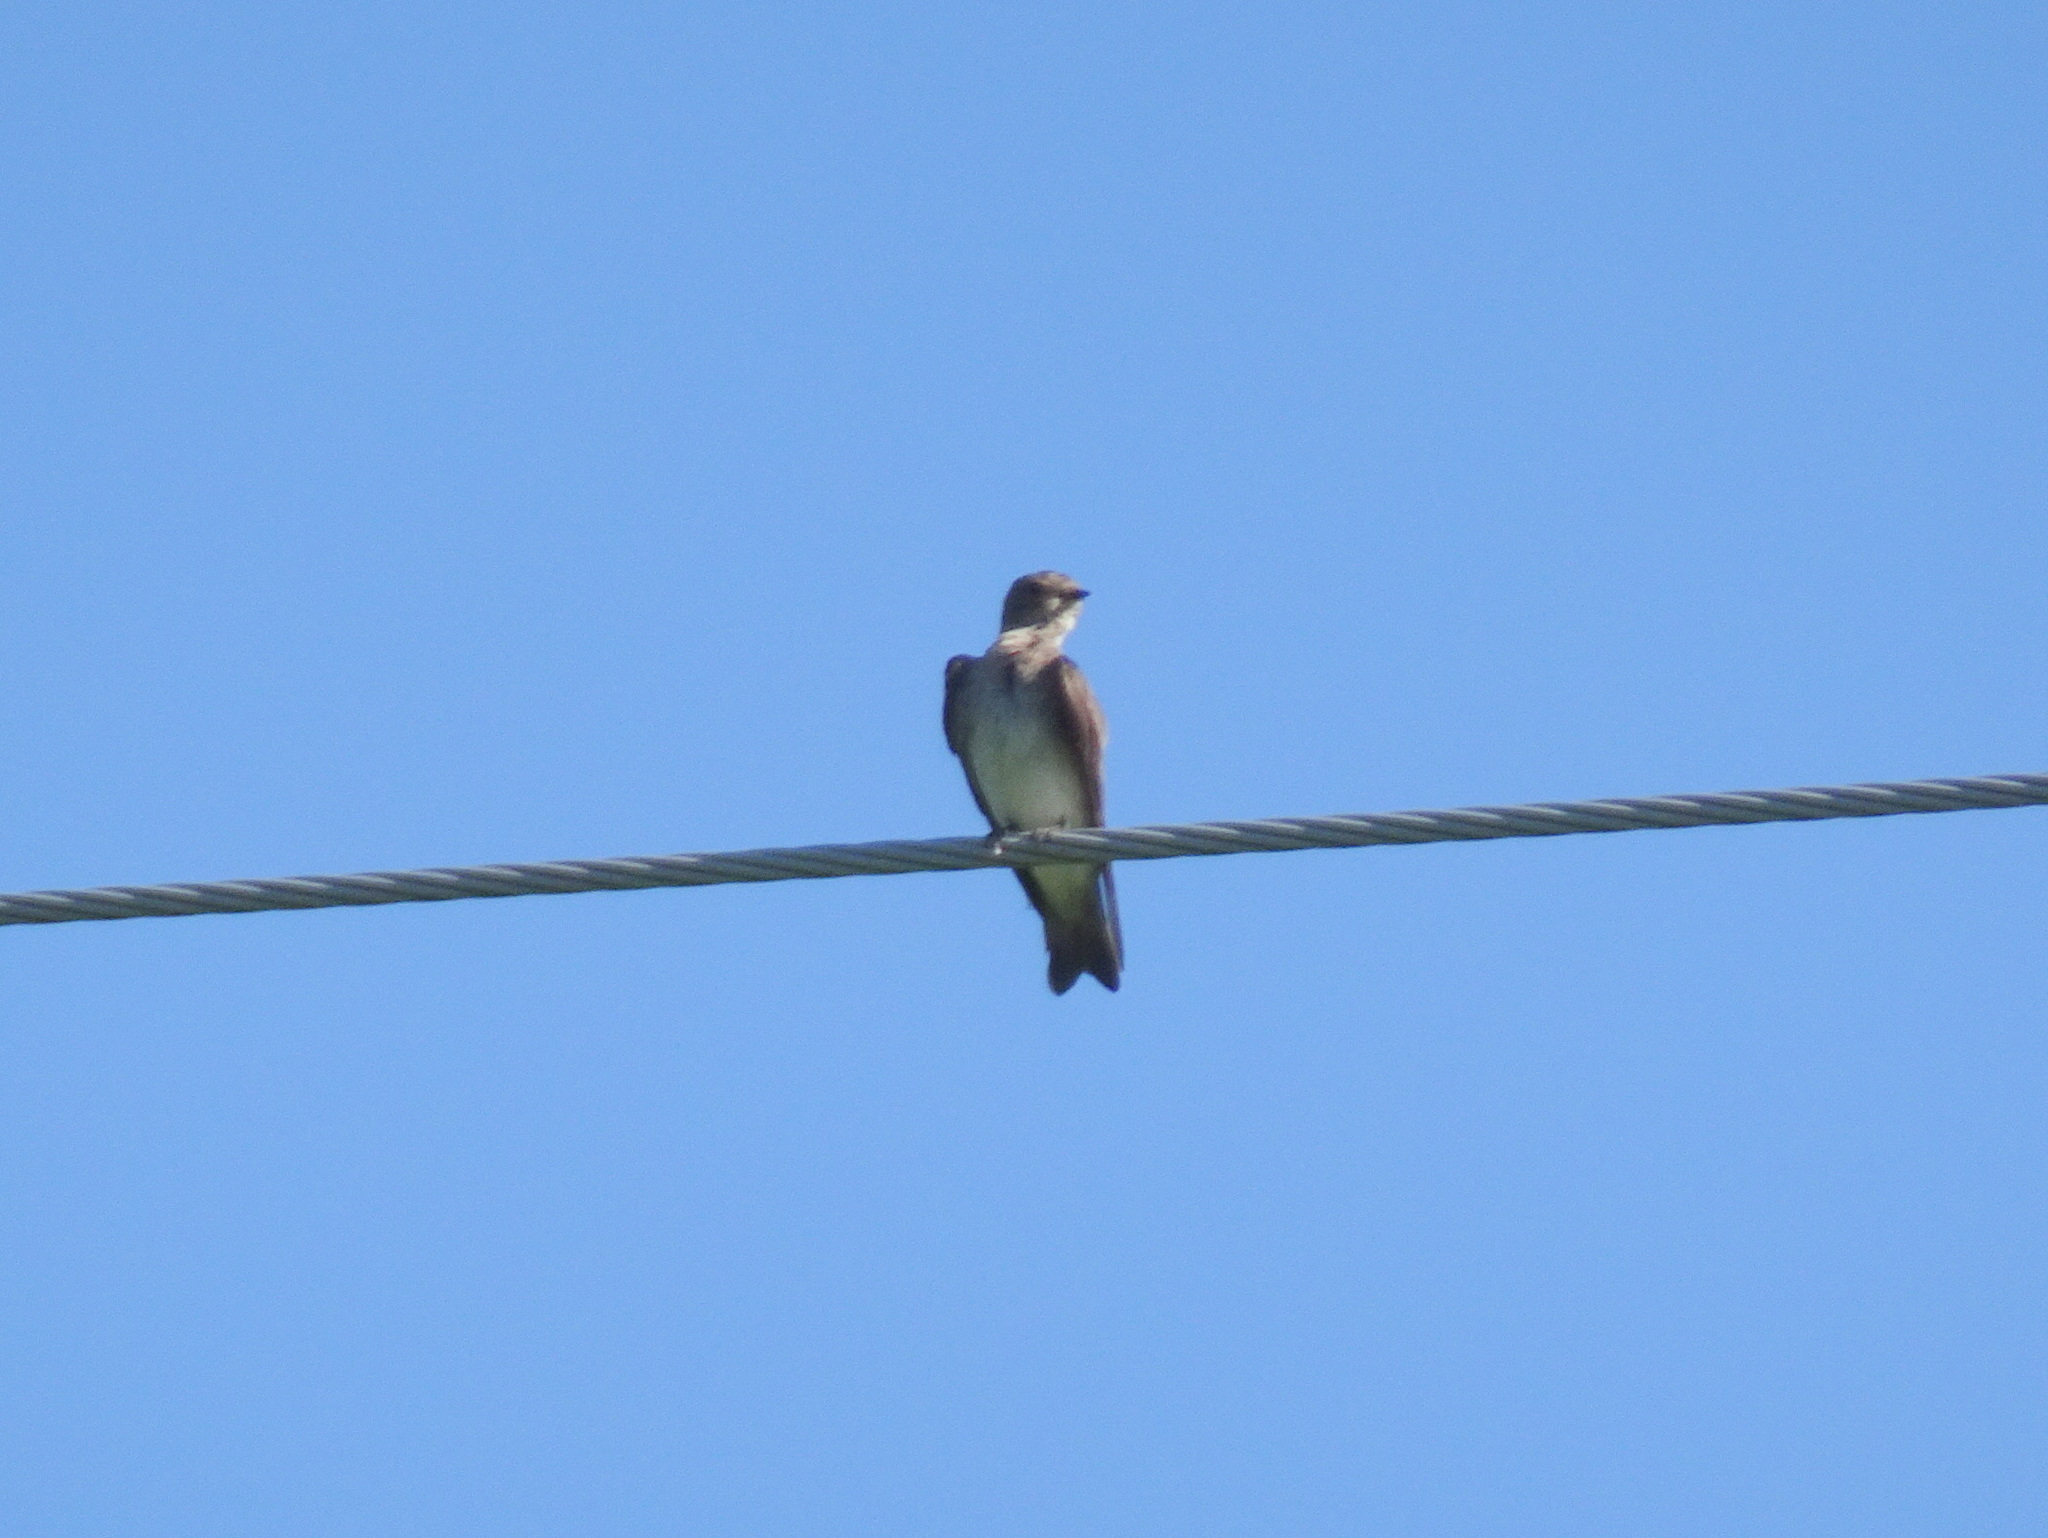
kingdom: Animalia
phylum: Chordata
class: Aves
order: Passeriformes
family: Hirundinidae
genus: Stelgidopteryx
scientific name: Stelgidopteryx serripennis
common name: Northern rough-winged swallow
